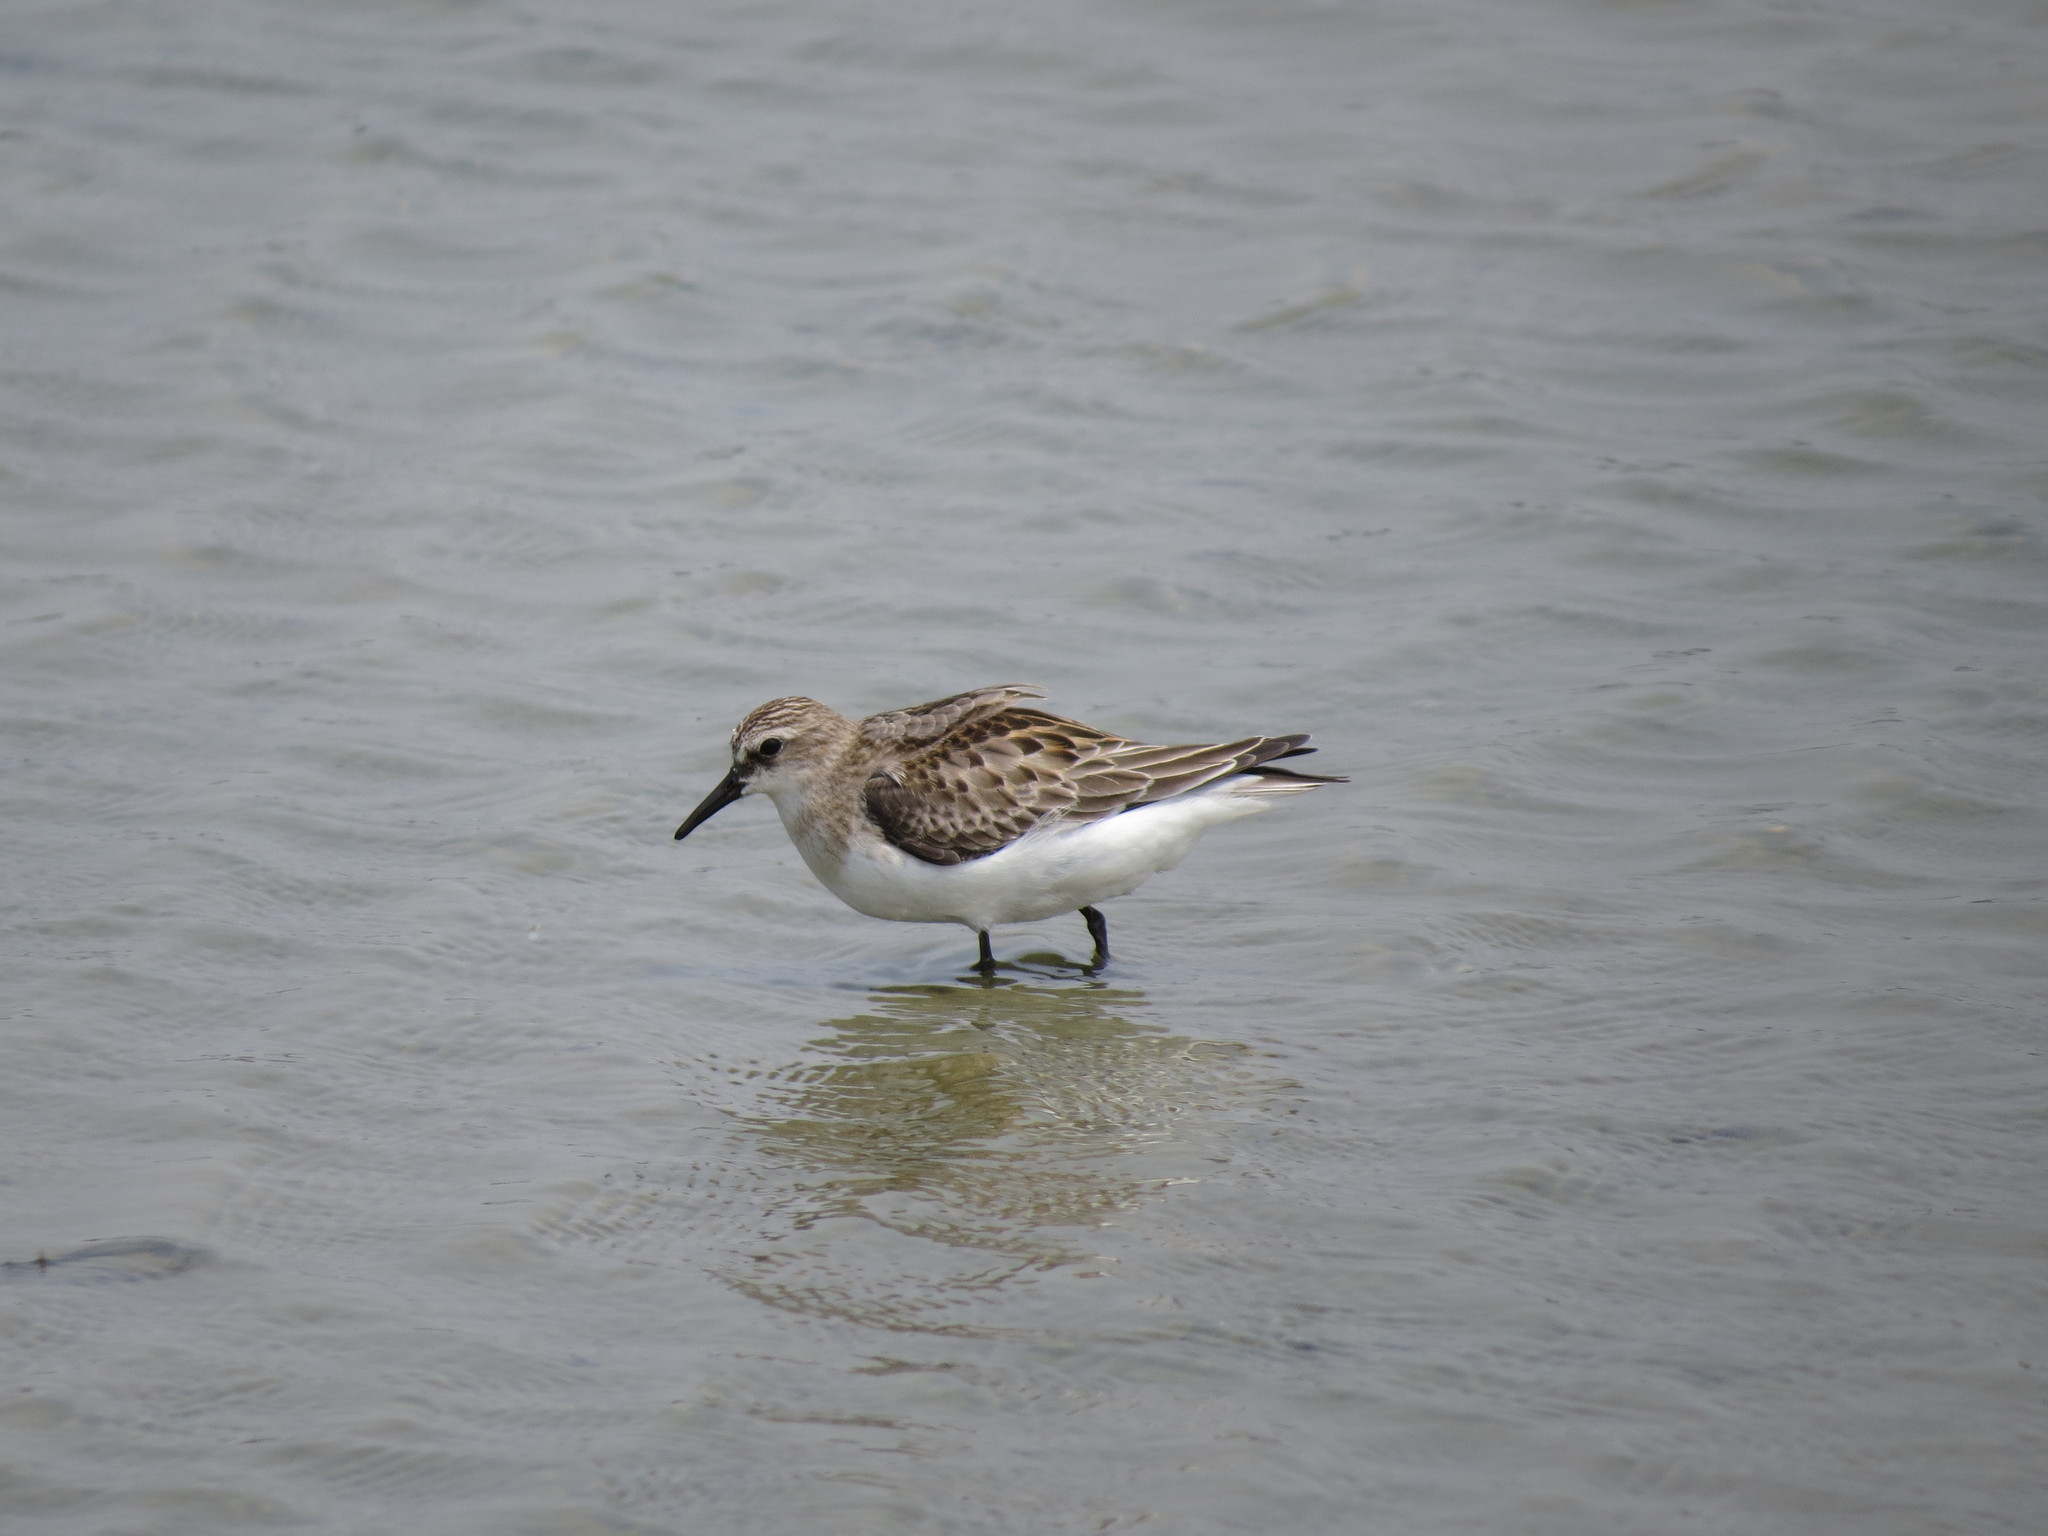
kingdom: Animalia
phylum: Chordata
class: Aves
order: Charadriiformes
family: Scolopacidae
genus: Calidris
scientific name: Calidris ruficollis
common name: Red-necked stint
